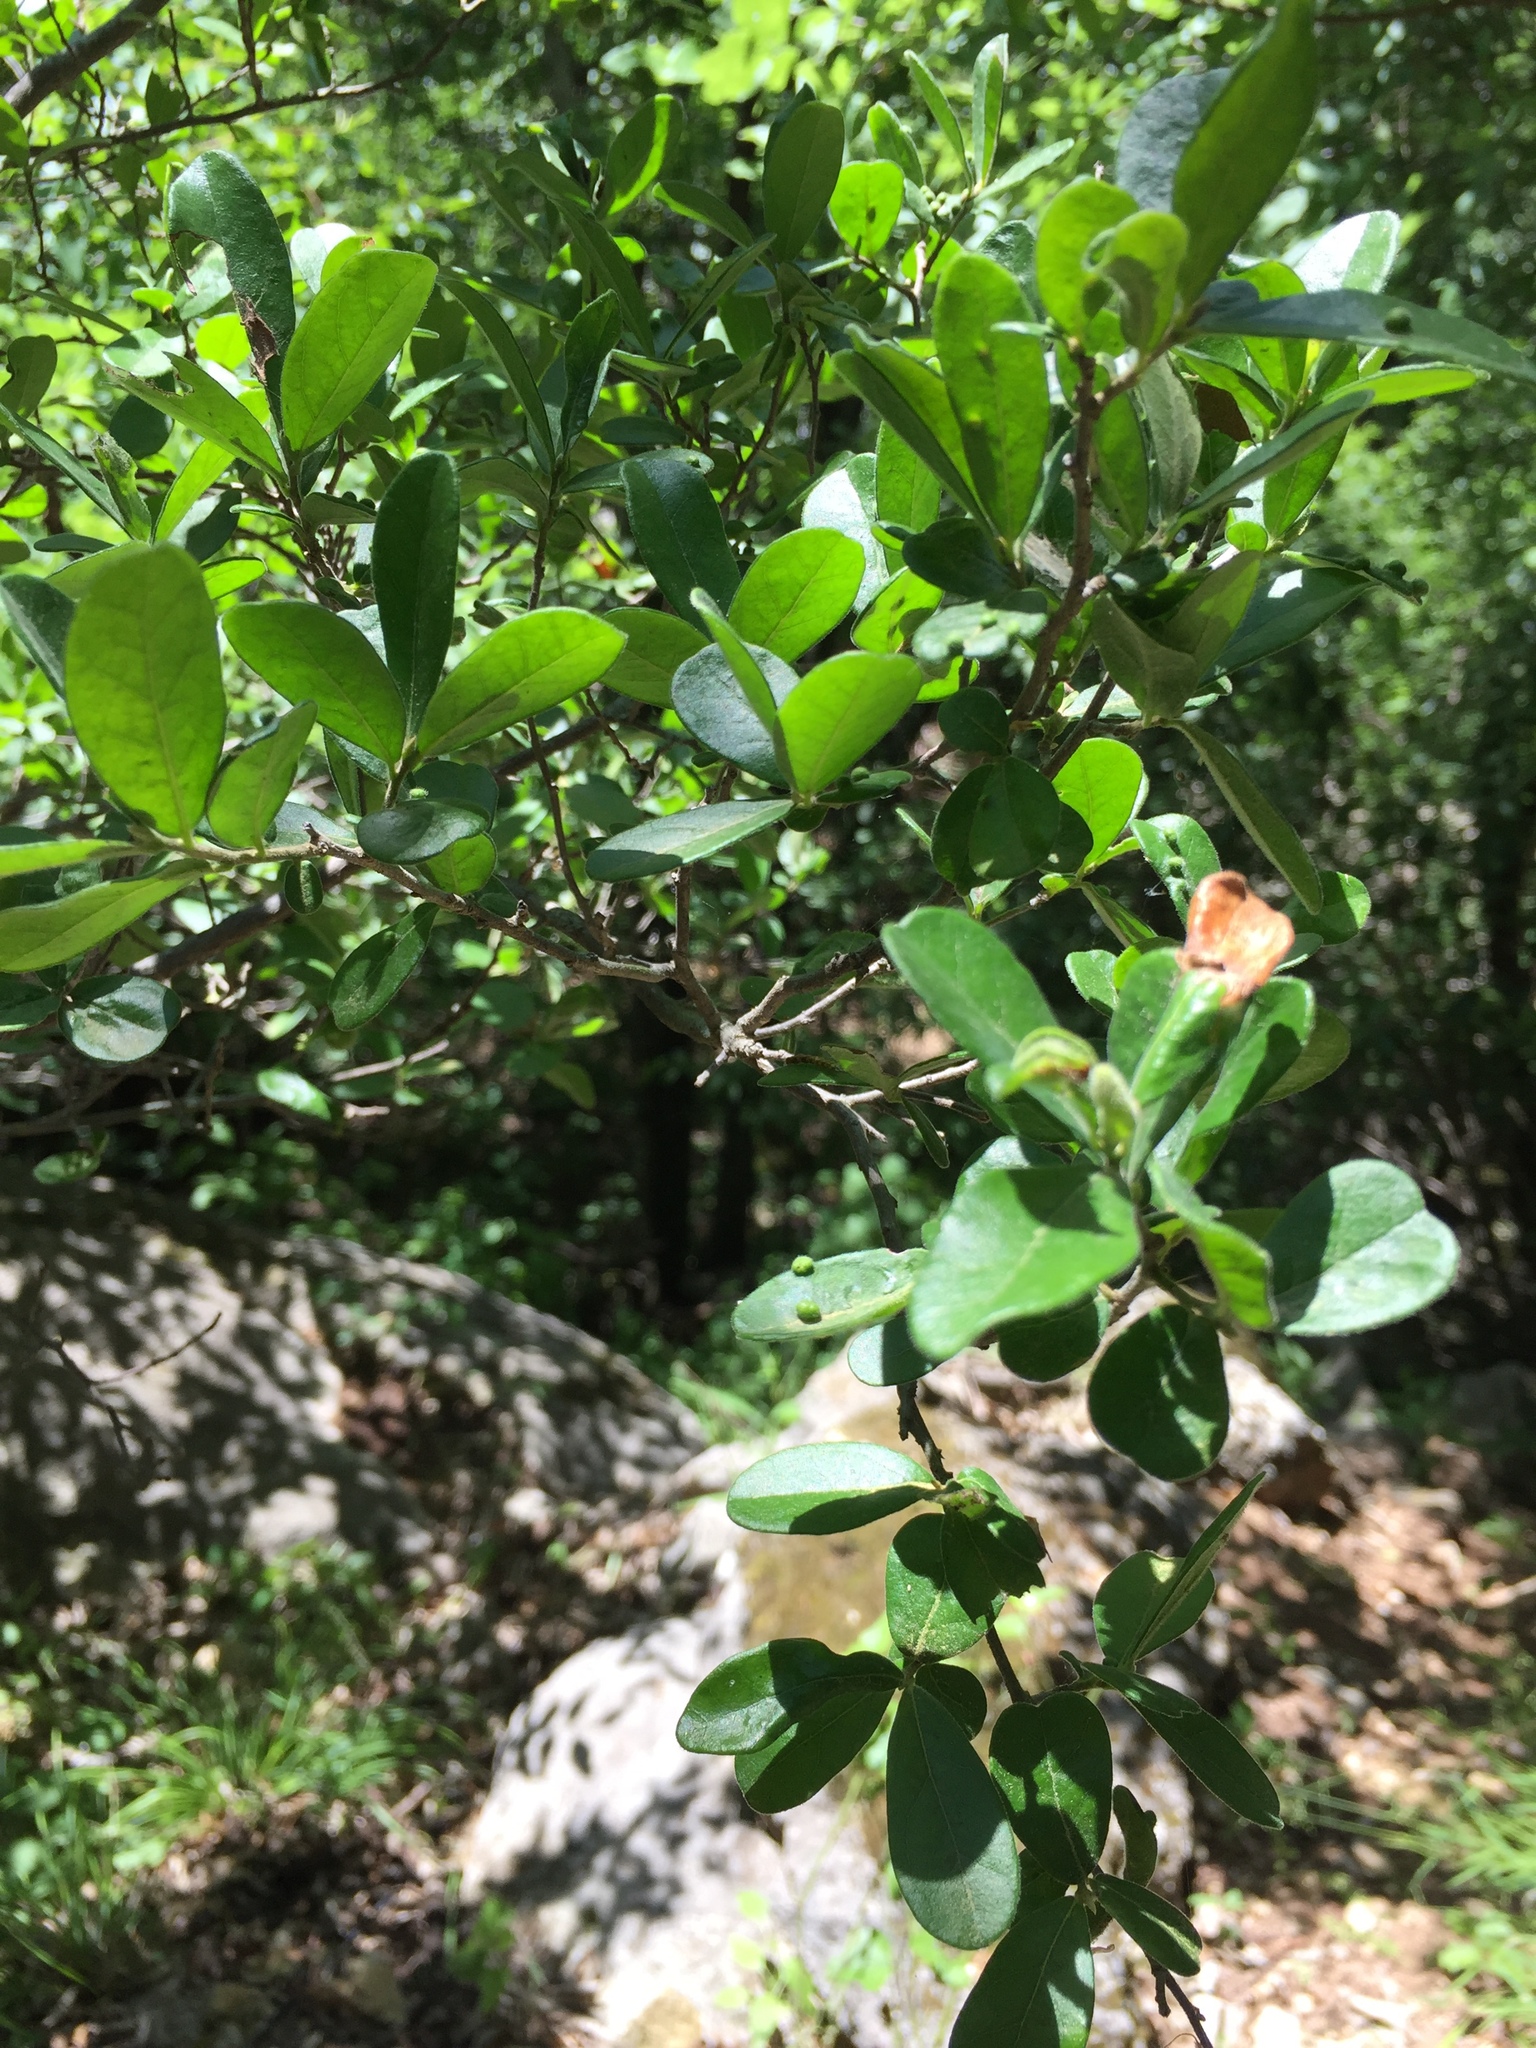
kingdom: Plantae
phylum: Tracheophyta
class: Magnoliopsida
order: Ericales
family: Ebenaceae
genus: Diospyros
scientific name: Diospyros texana
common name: Texas persimmon
